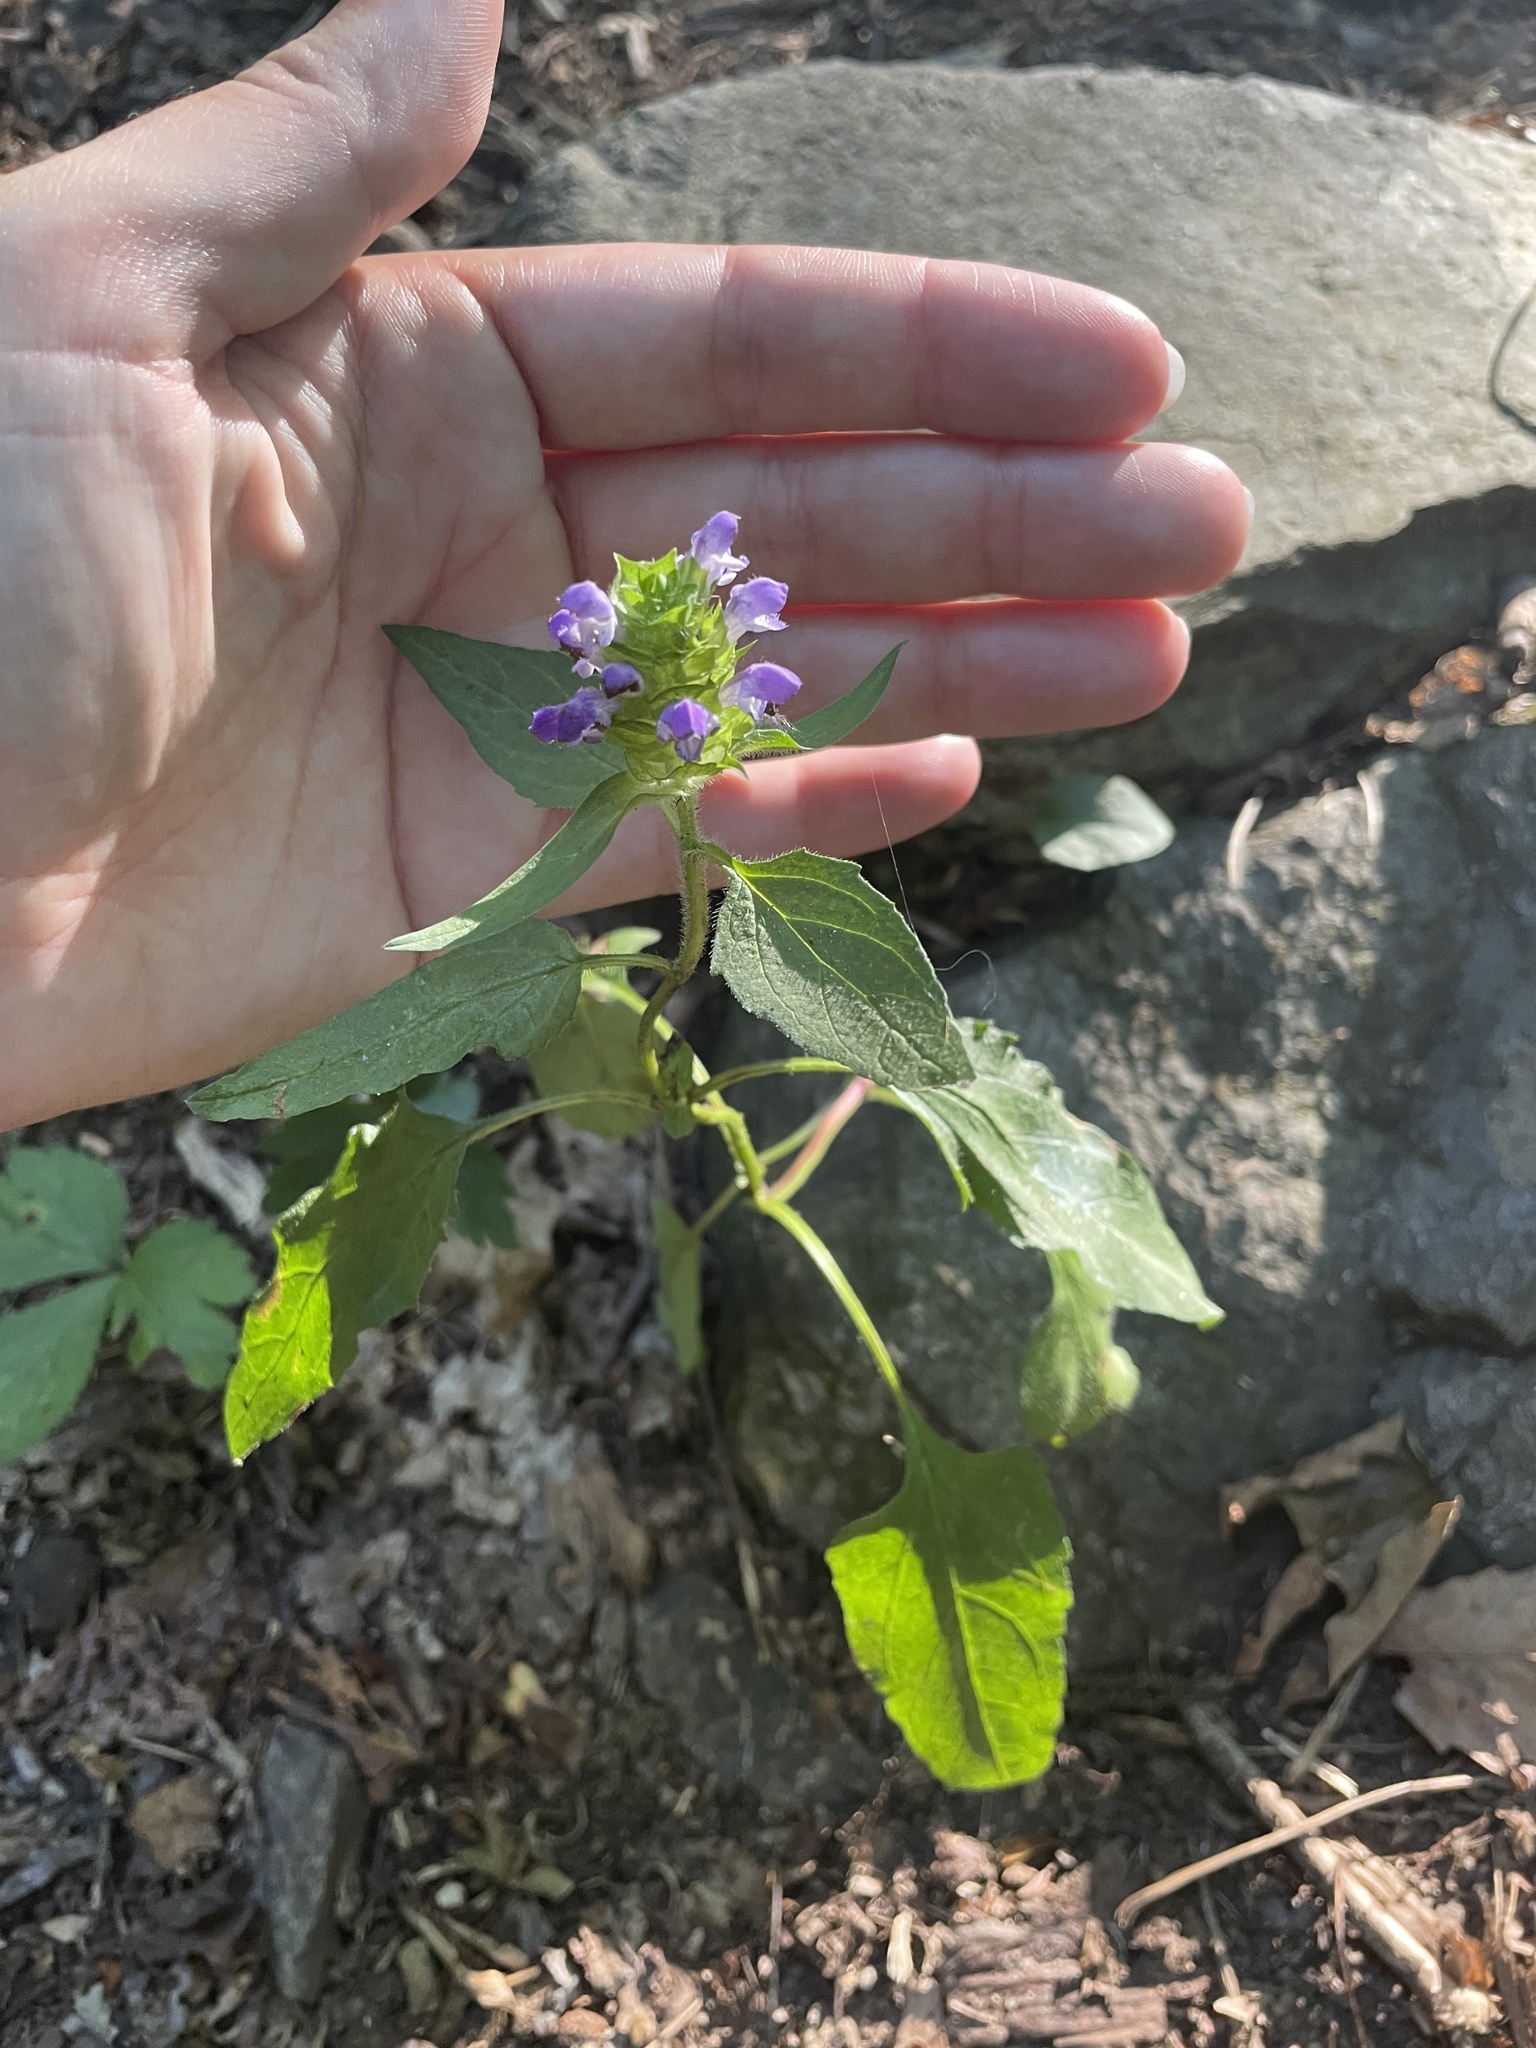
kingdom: Plantae
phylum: Tracheophyta
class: Magnoliopsida
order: Lamiales
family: Lamiaceae
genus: Prunella
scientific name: Prunella vulgaris
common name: Heal-all
